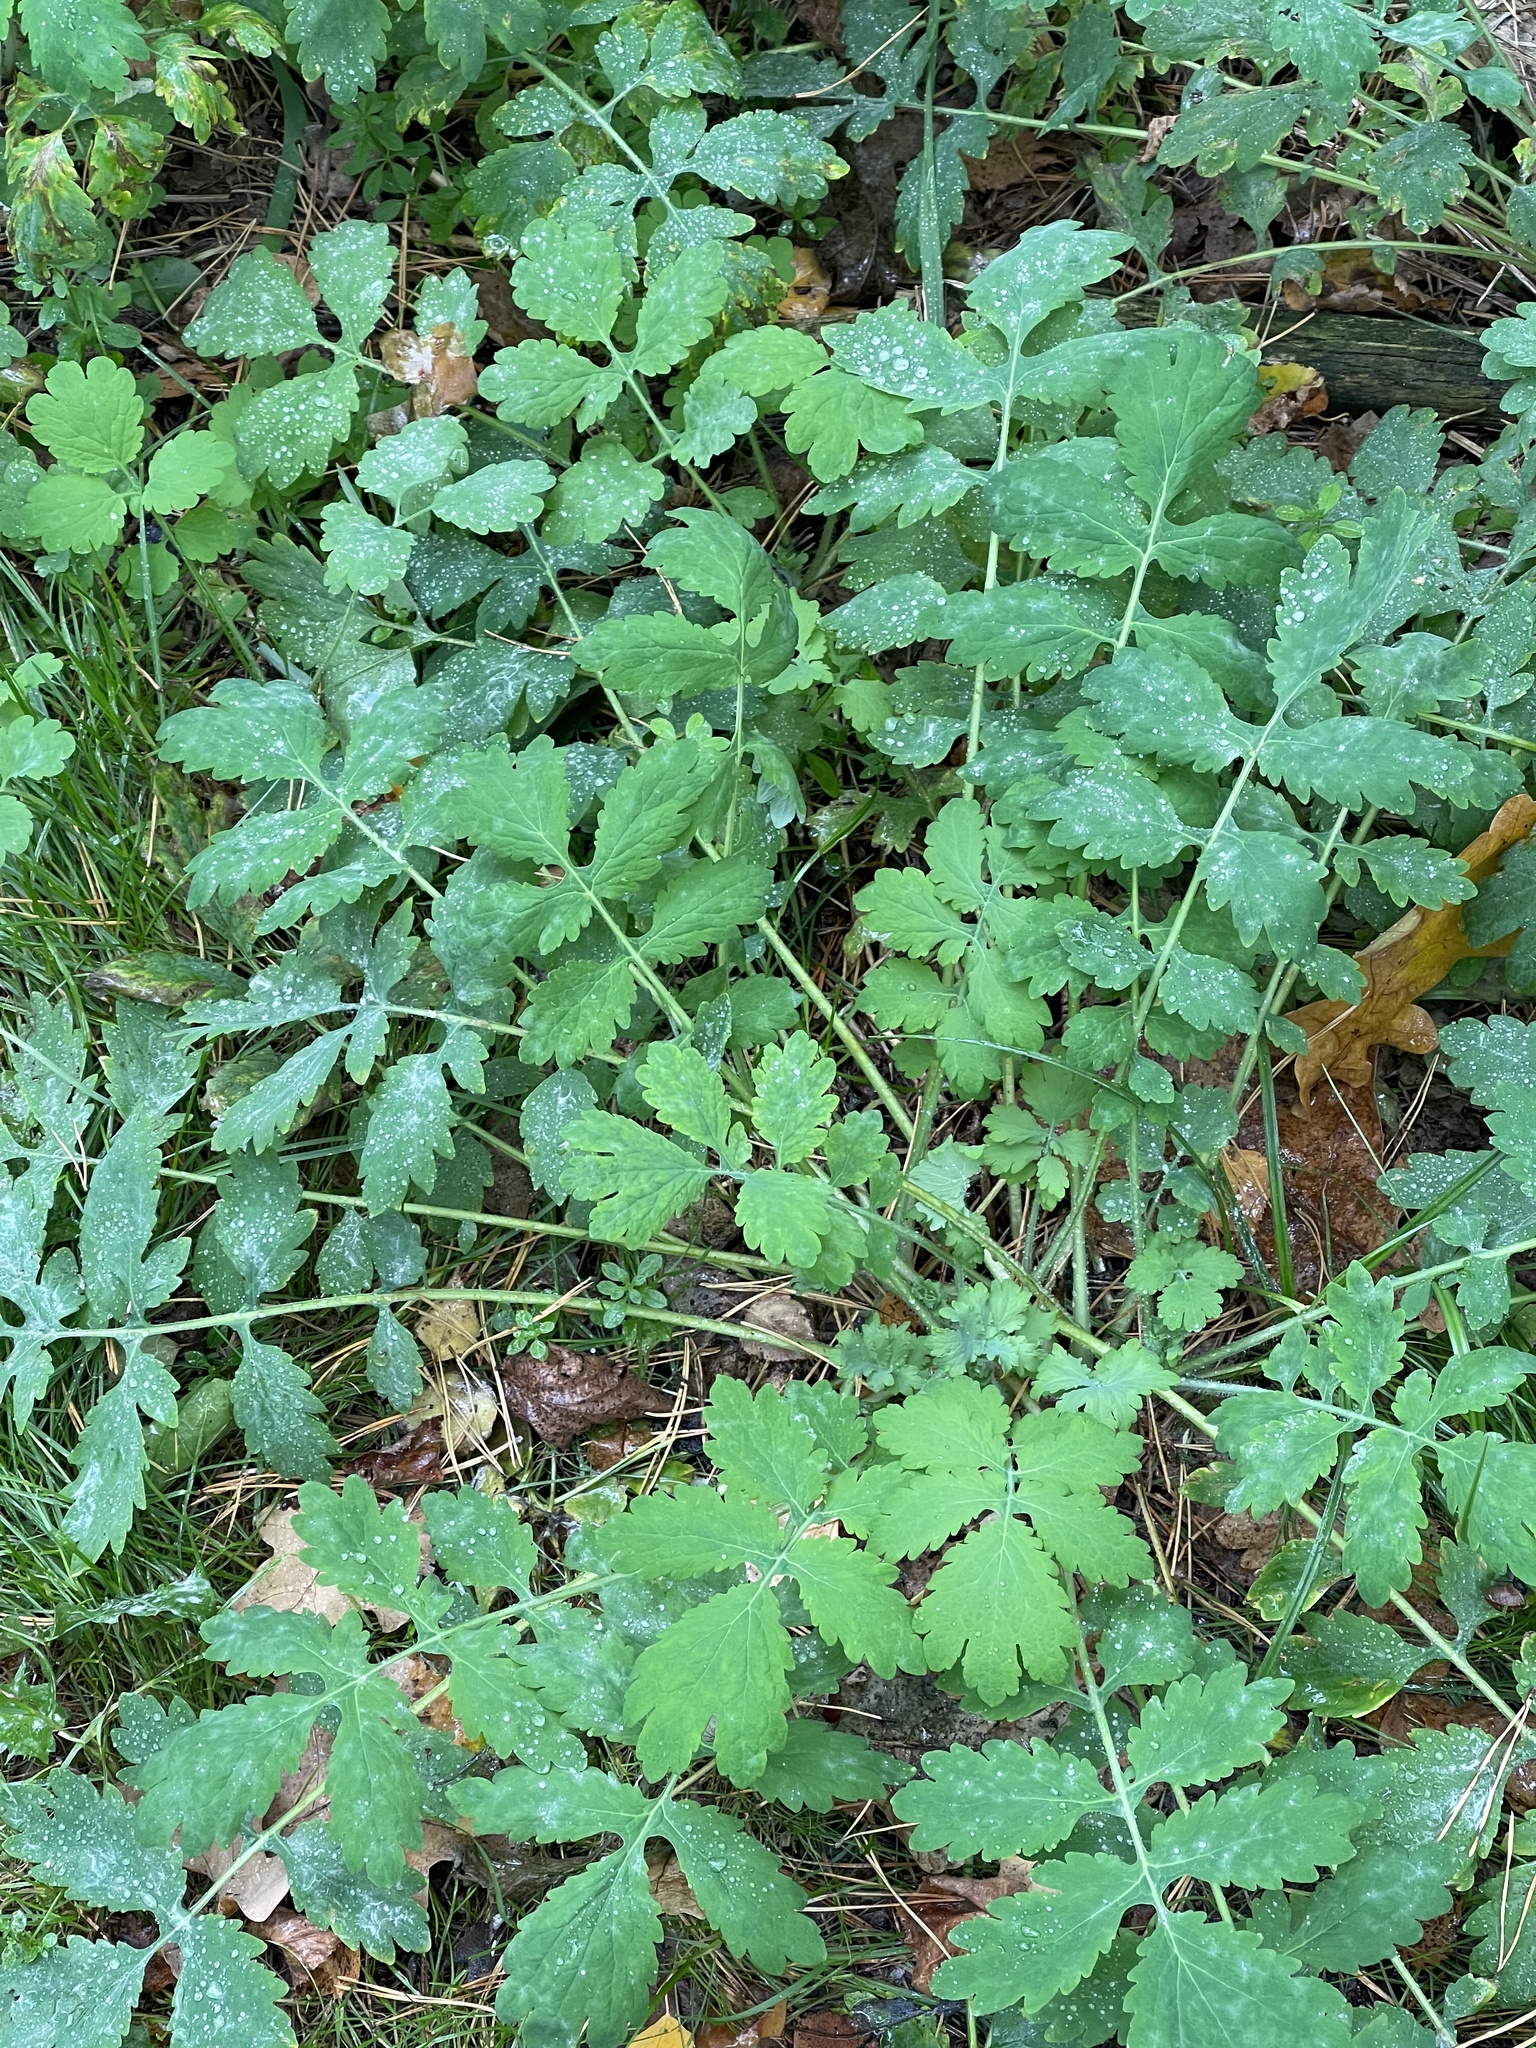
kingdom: Plantae
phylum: Tracheophyta
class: Magnoliopsida
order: Ranunculales
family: Papaveraceae
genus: Chelidonium
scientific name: Chelidonium majus
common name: Greater celandine
